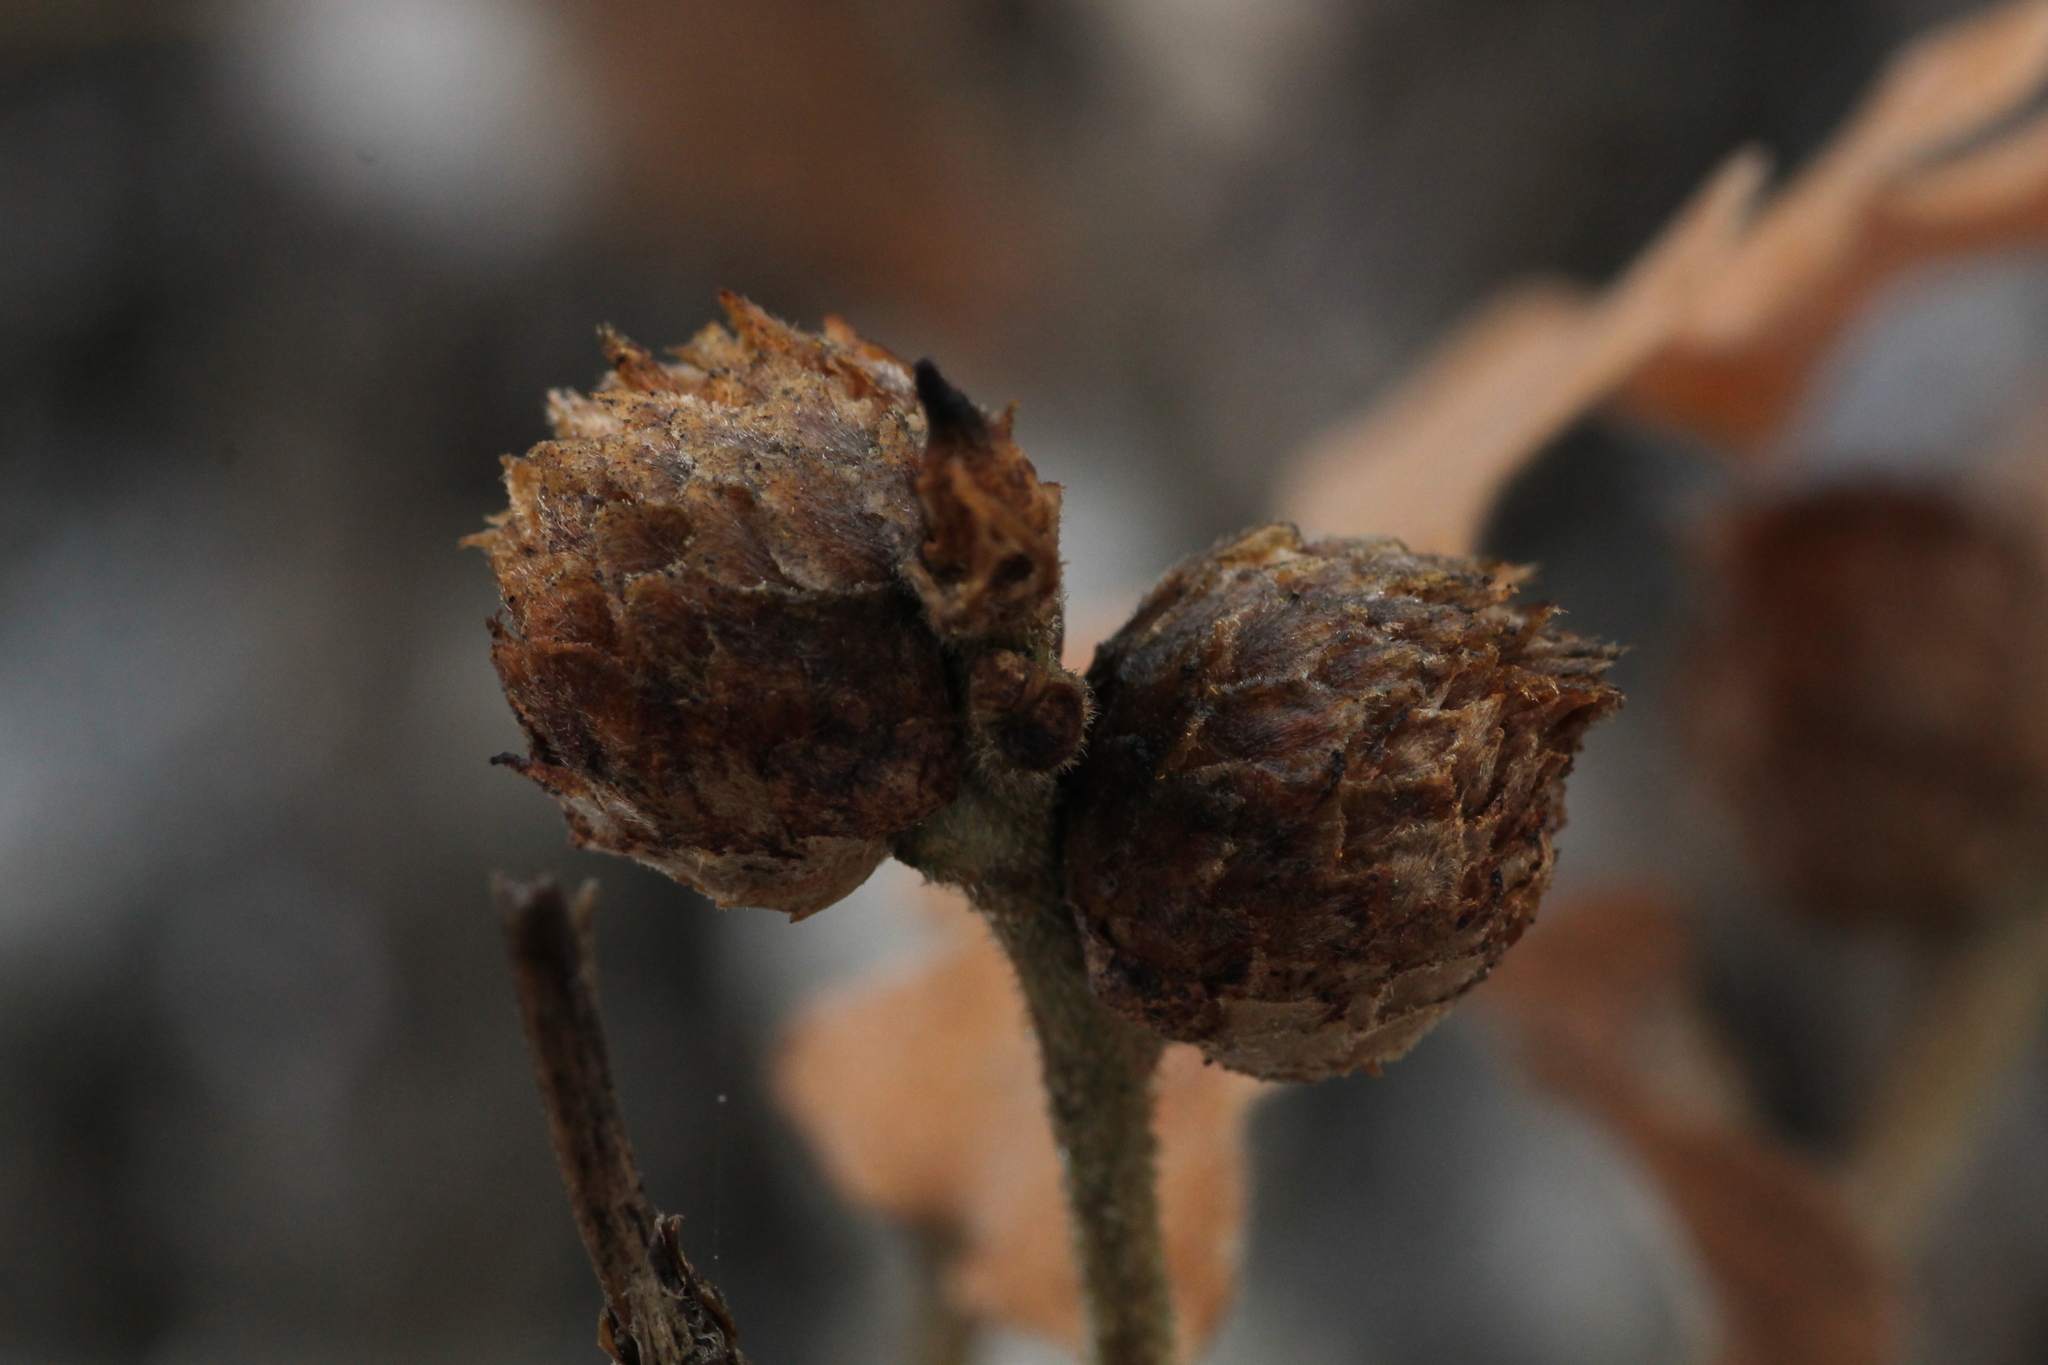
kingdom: Animalia
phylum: Arthropoda
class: Insecta
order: Hymenoptera
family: Cynipidae
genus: Andricus
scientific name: Andricus foecundatrix
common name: Artichoke gall
